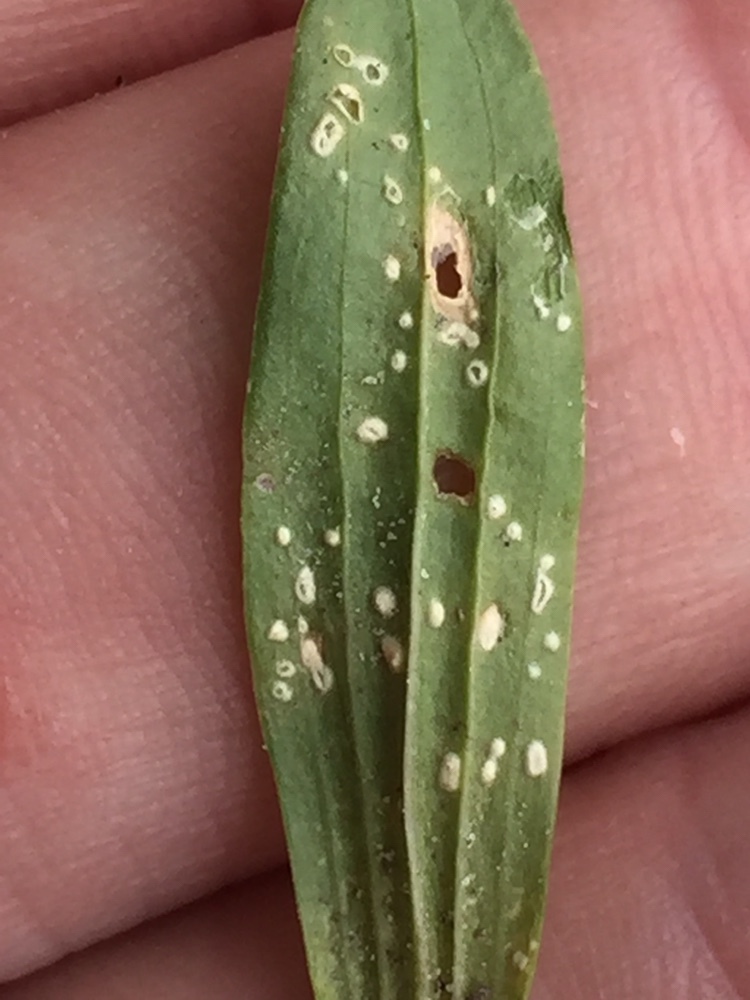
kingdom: Chromista
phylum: Oomycota
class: Peronosporea
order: Albuginales
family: Albuginaceae
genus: Pustula
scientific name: Pustula centaurii
